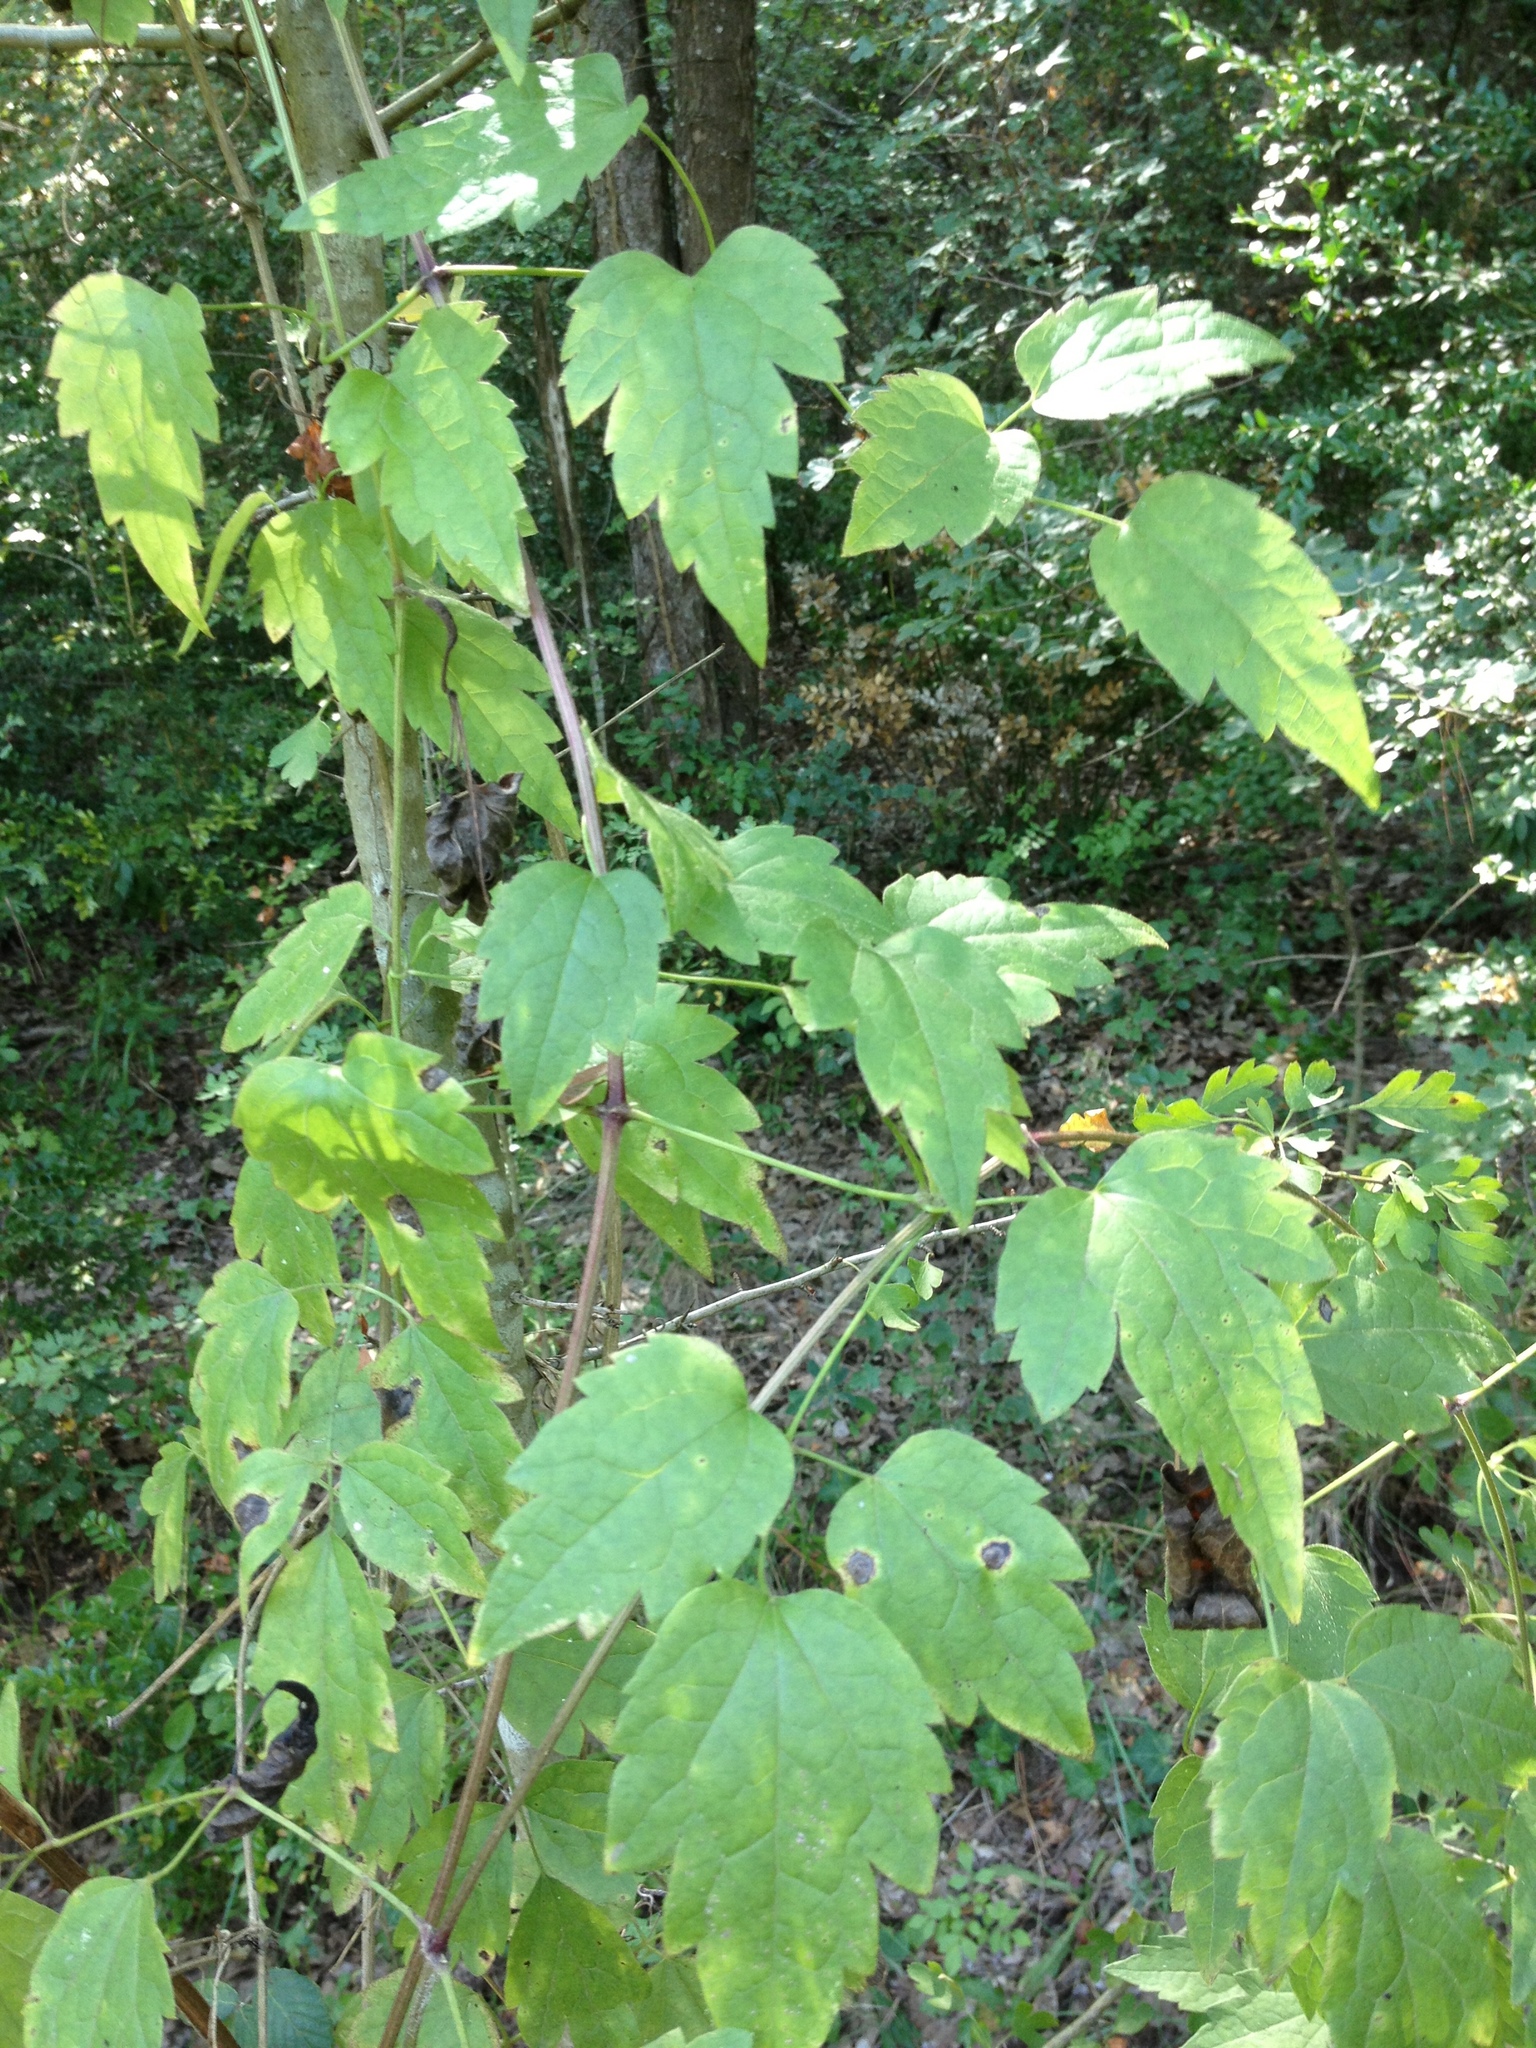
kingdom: Plantae
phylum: Tracheophyta
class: Magnoliopsida
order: Ranunculales
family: Ranunculaceae
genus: Clematis
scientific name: Clematis vitalba
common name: Evergreen clematis
